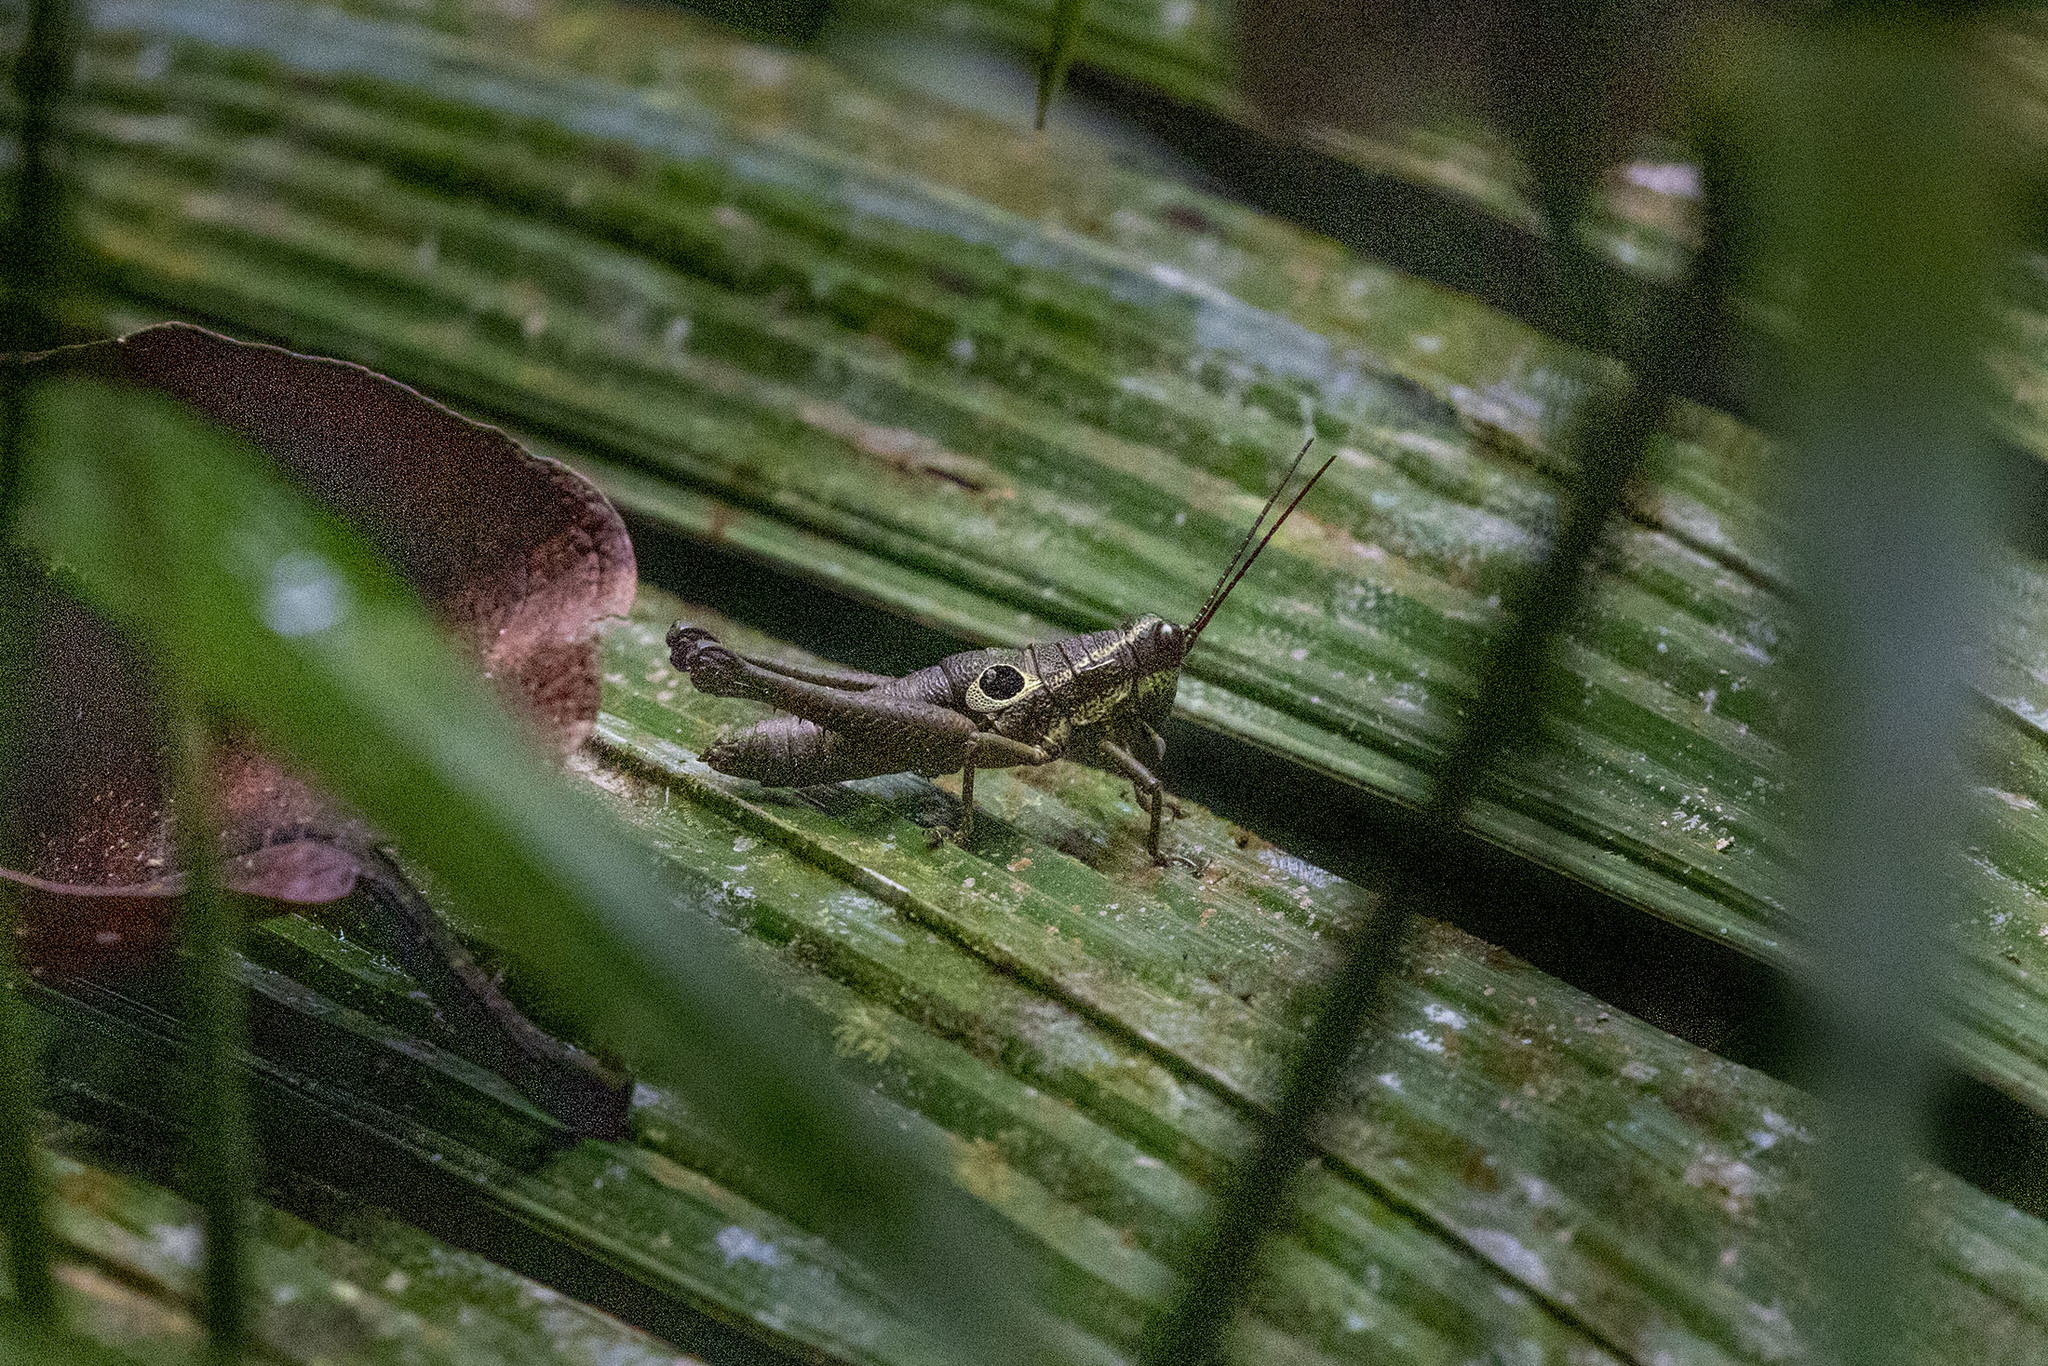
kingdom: Animalia
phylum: Arthropoda
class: Insecta
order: Orthoptera
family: Acrididae
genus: Ommatolampis
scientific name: Ommatolampis perspicillata
